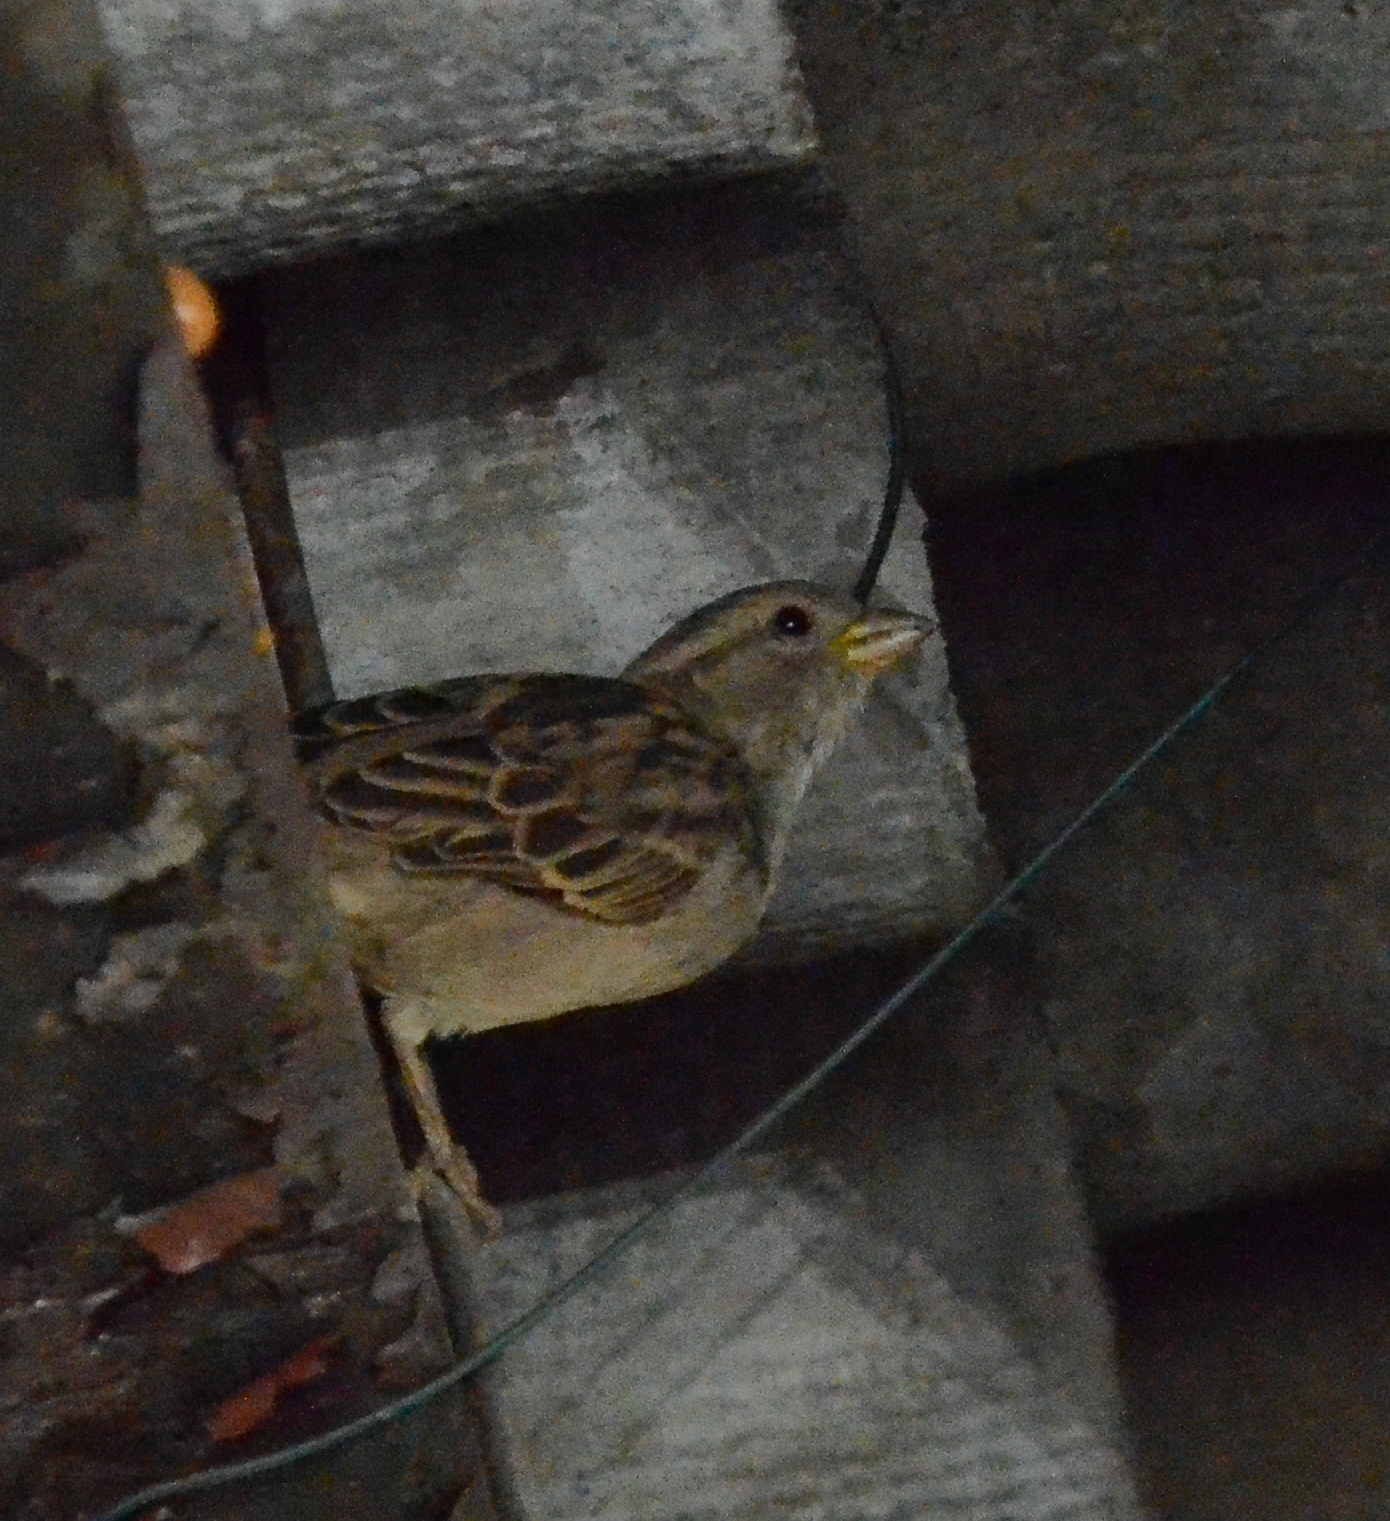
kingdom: Animalia
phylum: Chordata
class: Aves
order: Passeriformes
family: Passeridae
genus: Passer
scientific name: Passer domesticus
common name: House sparrow
